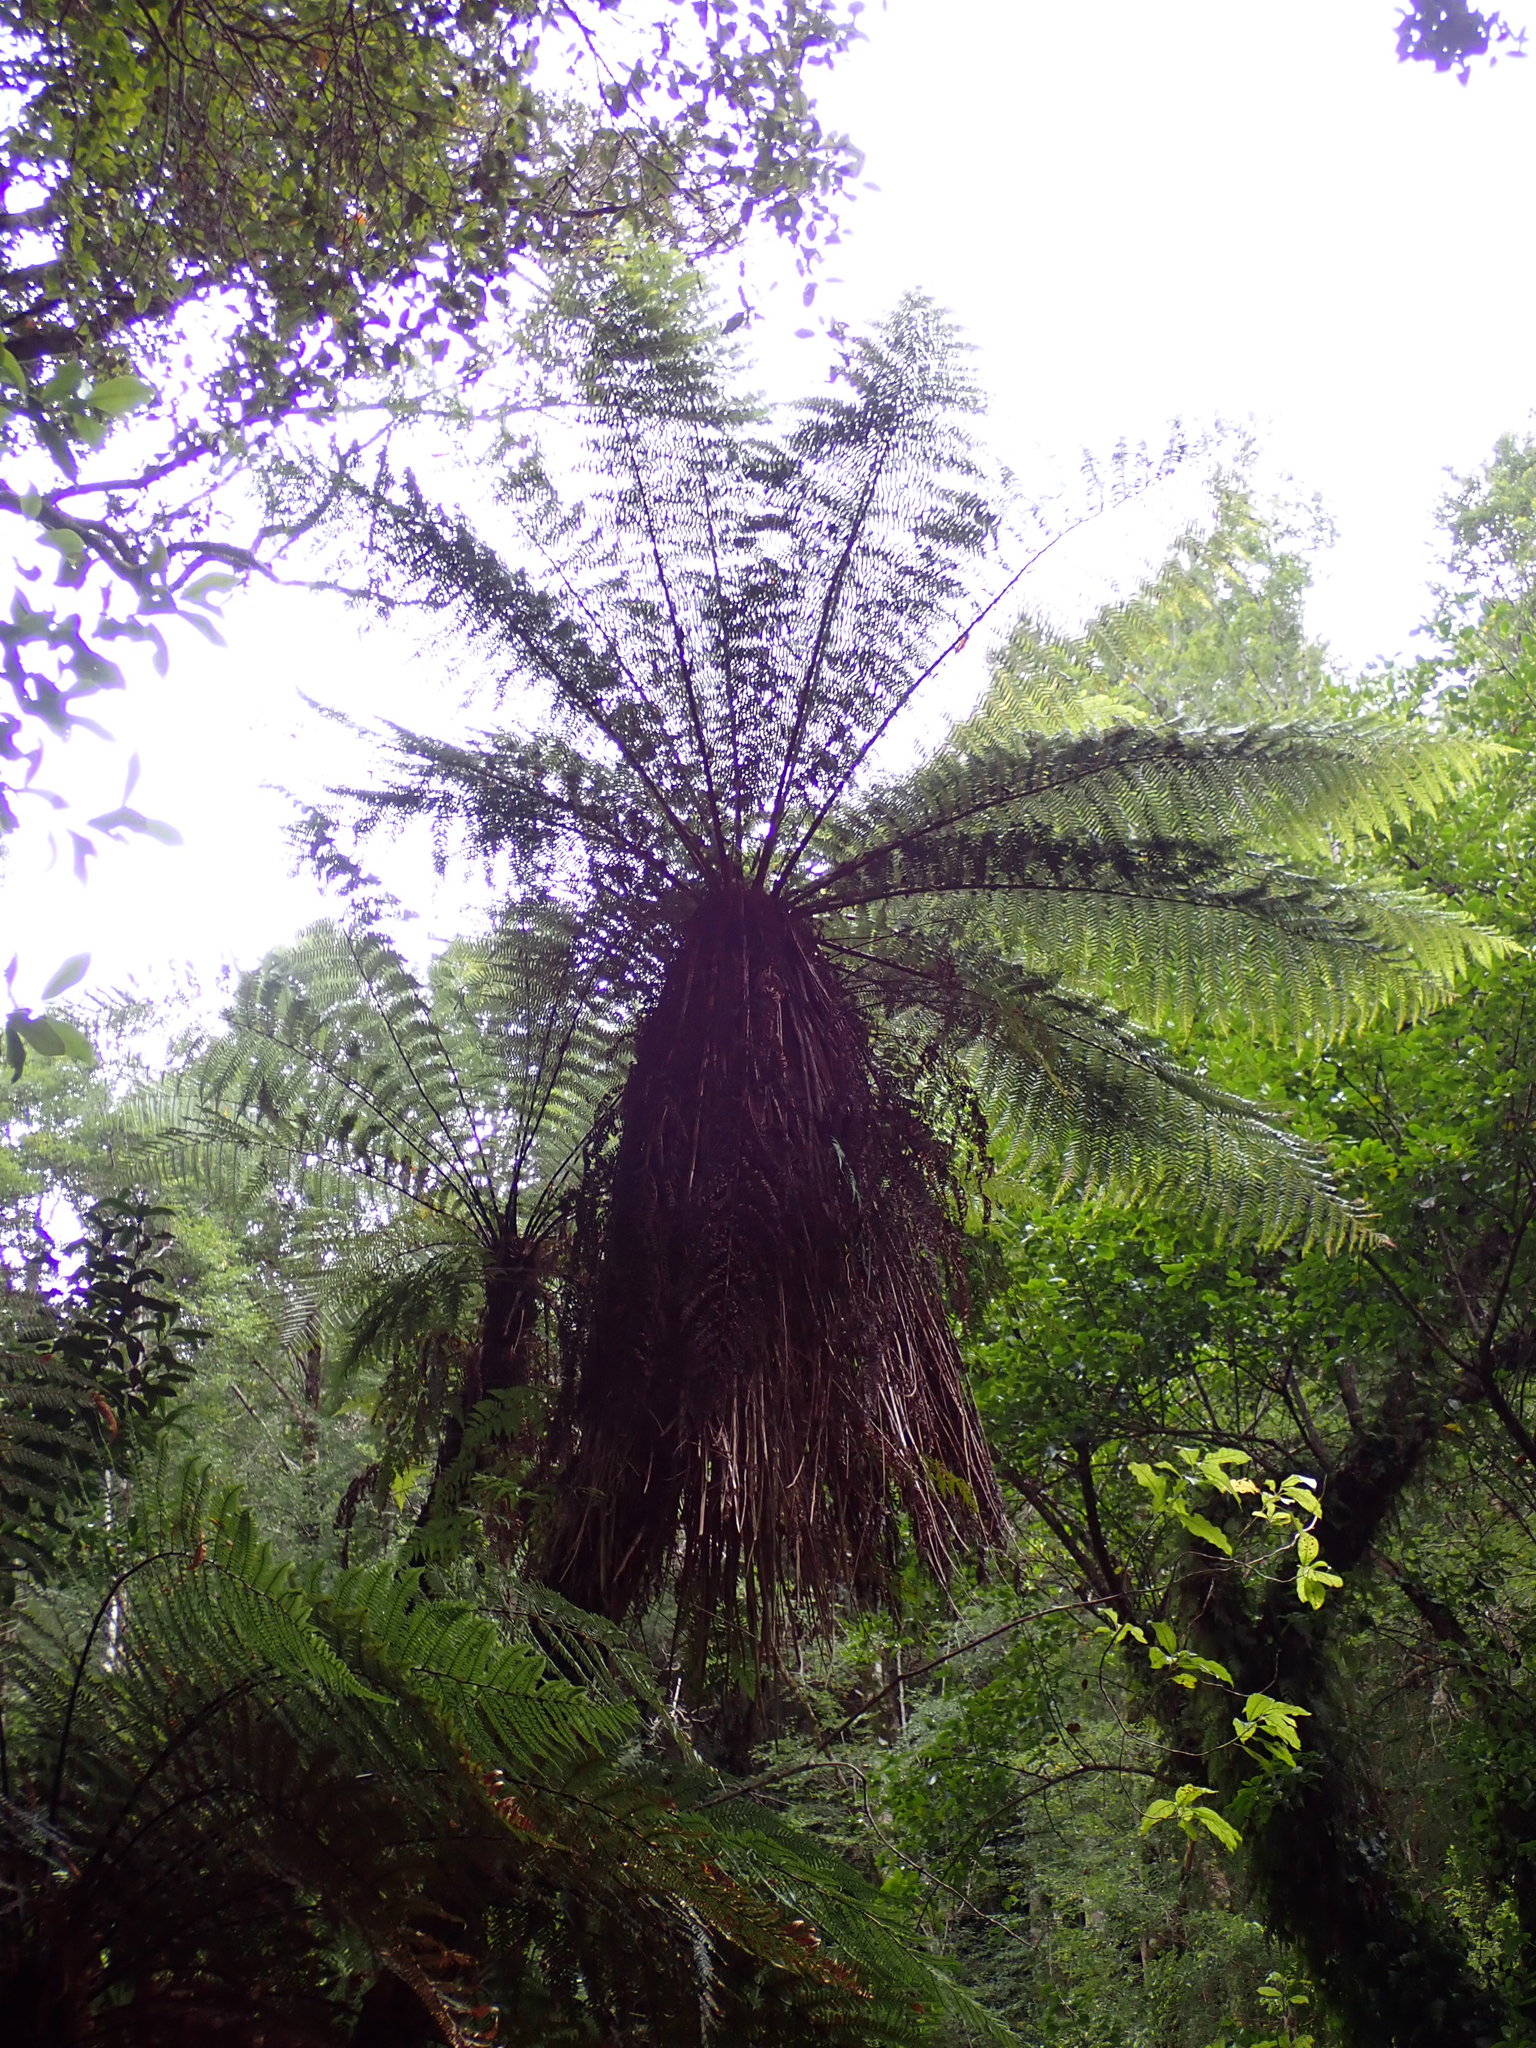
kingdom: Plantae
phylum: Tracheophyta
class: Polypodiopsida
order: Cyatheales
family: Cyatheaceae
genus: Alsophila
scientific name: Alsophila smithii
